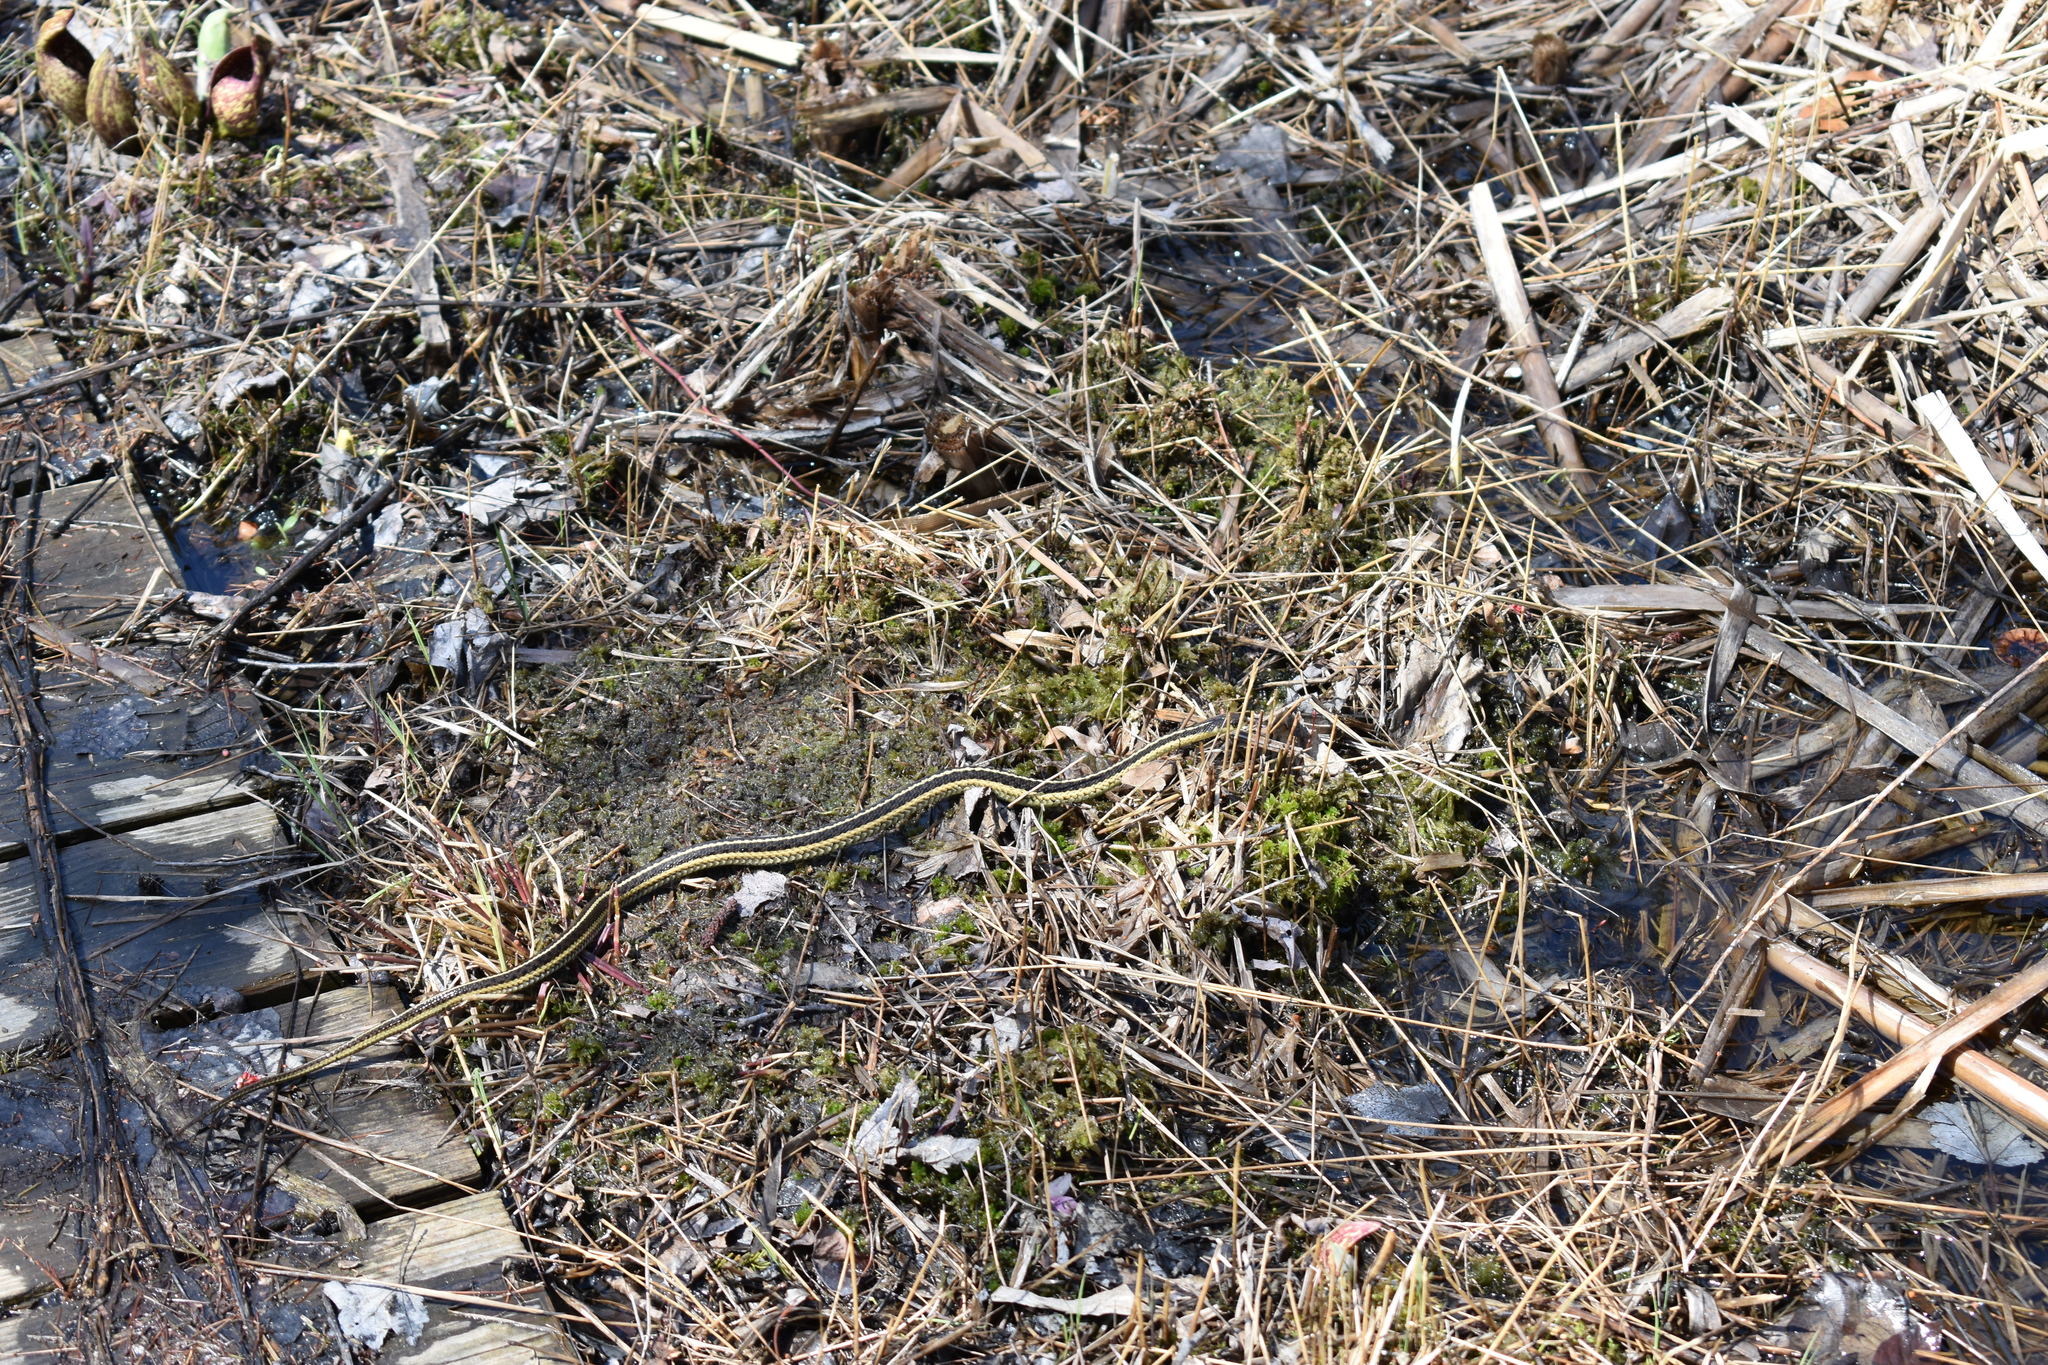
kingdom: Animalia
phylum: Chordata
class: Squamata
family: Colubridae
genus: Thamnophis
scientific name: Thamnophis sirtalis
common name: Common garter snake
